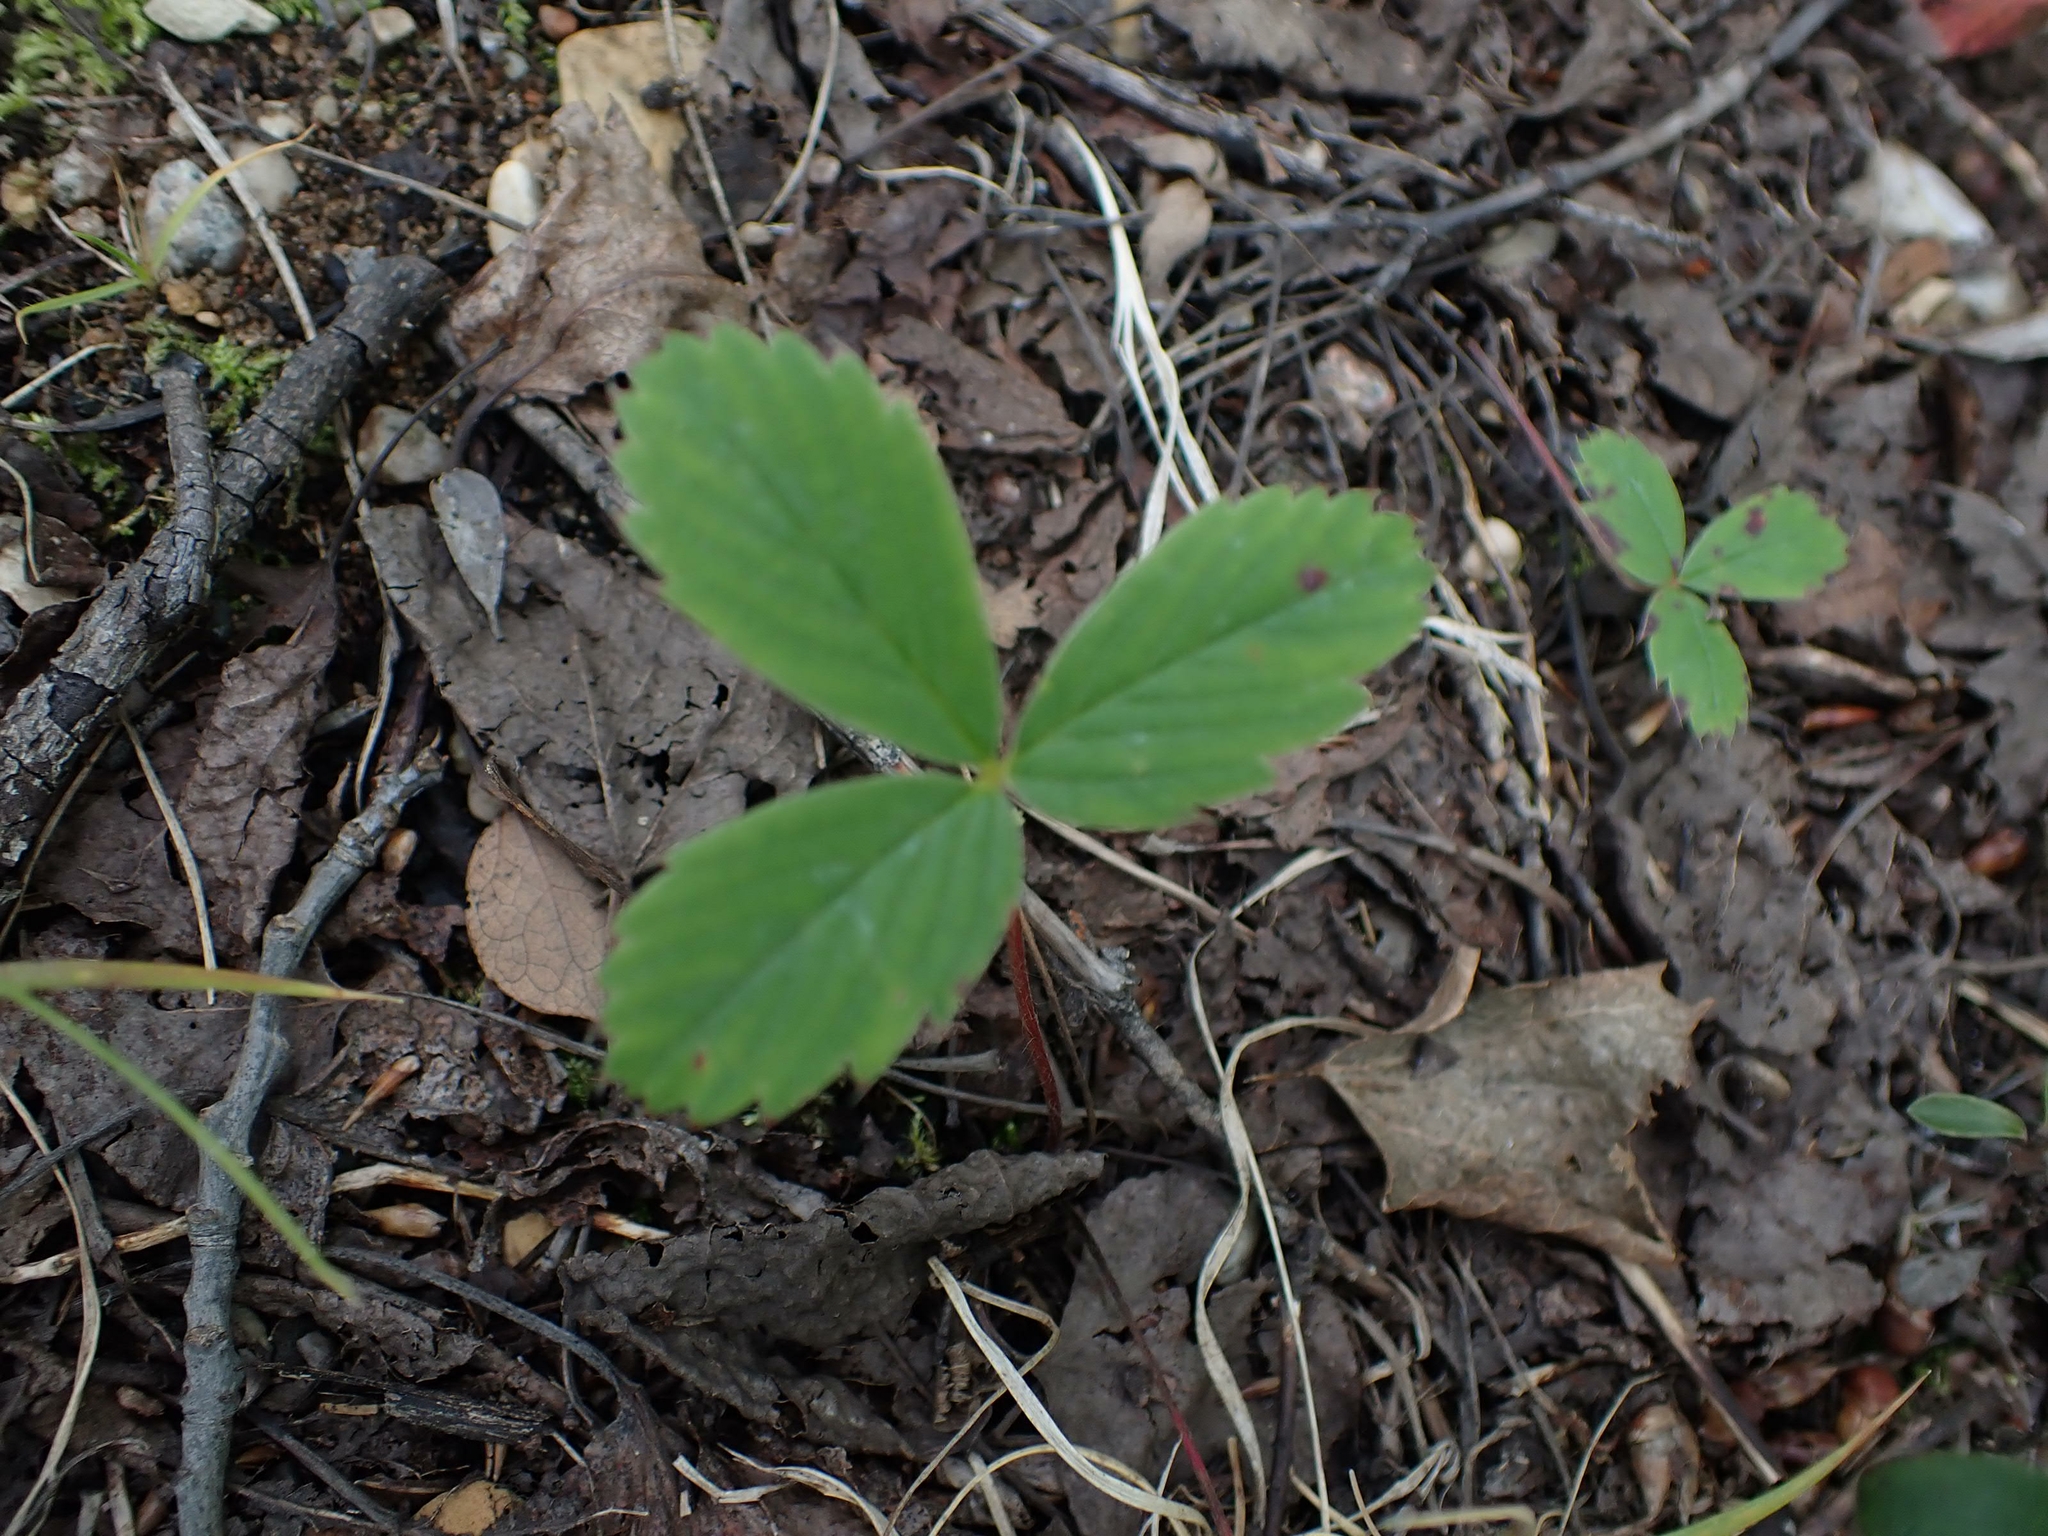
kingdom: Plantae
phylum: Tracheophyta
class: Magnoliopsida
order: Rosales
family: Rosaceae
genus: Fragaria
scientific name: Fragaria virginiana
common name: Thickleaved wild strawberry
